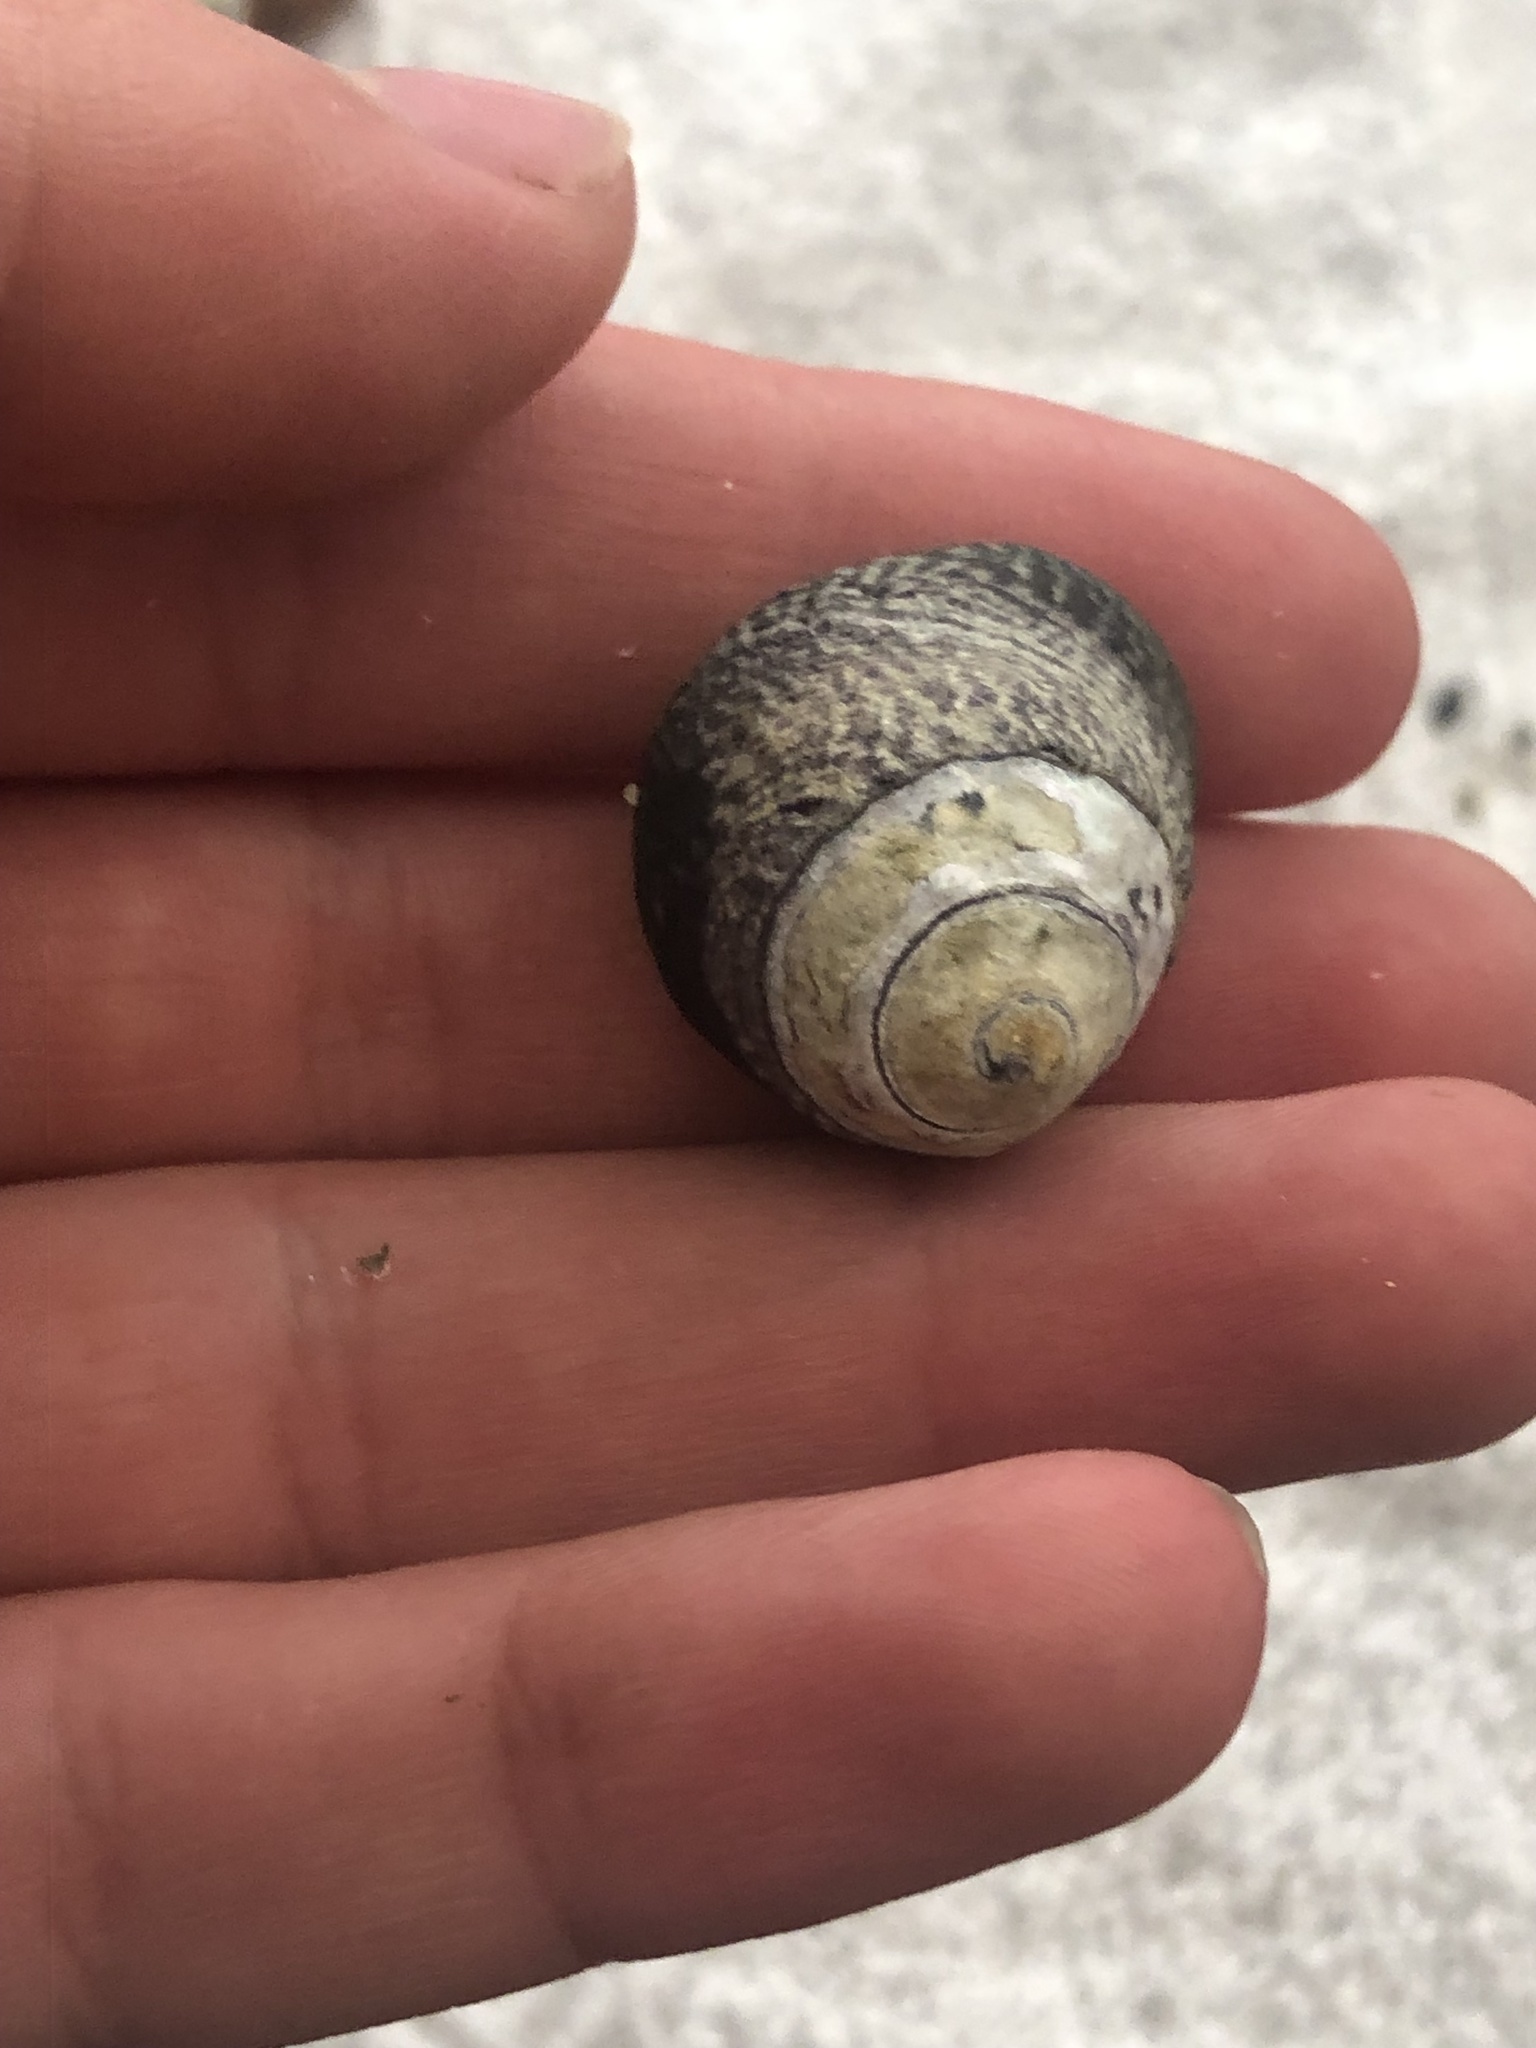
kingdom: Animalia
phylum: Mollusca
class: Gastropoda
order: Trochida
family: Tegulidae
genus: Tegula
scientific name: Tegula gallina
